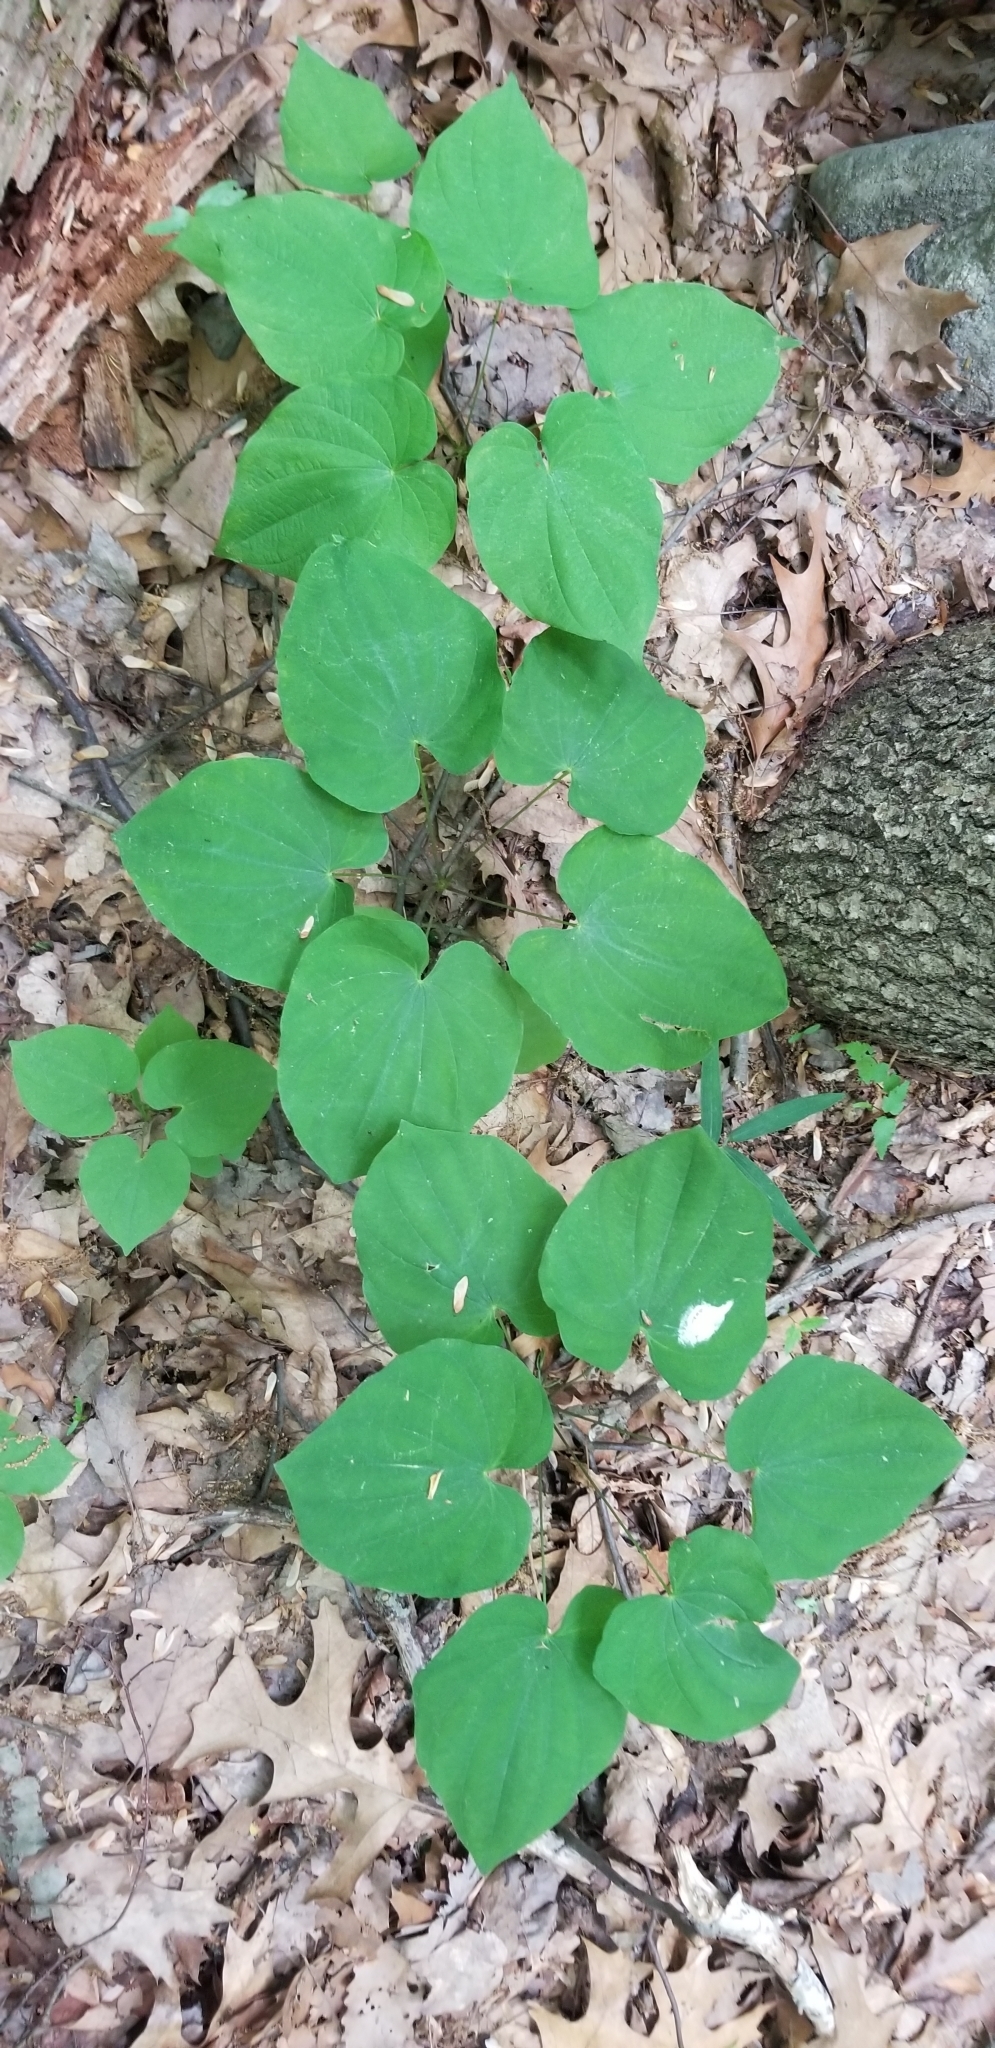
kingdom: Plantae
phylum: Tracheophyta
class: Liliopsida
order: Dioscoreales
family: Dioscoreaceae
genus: Dioscorea
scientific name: Dioscorea villosa
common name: Wild yam
